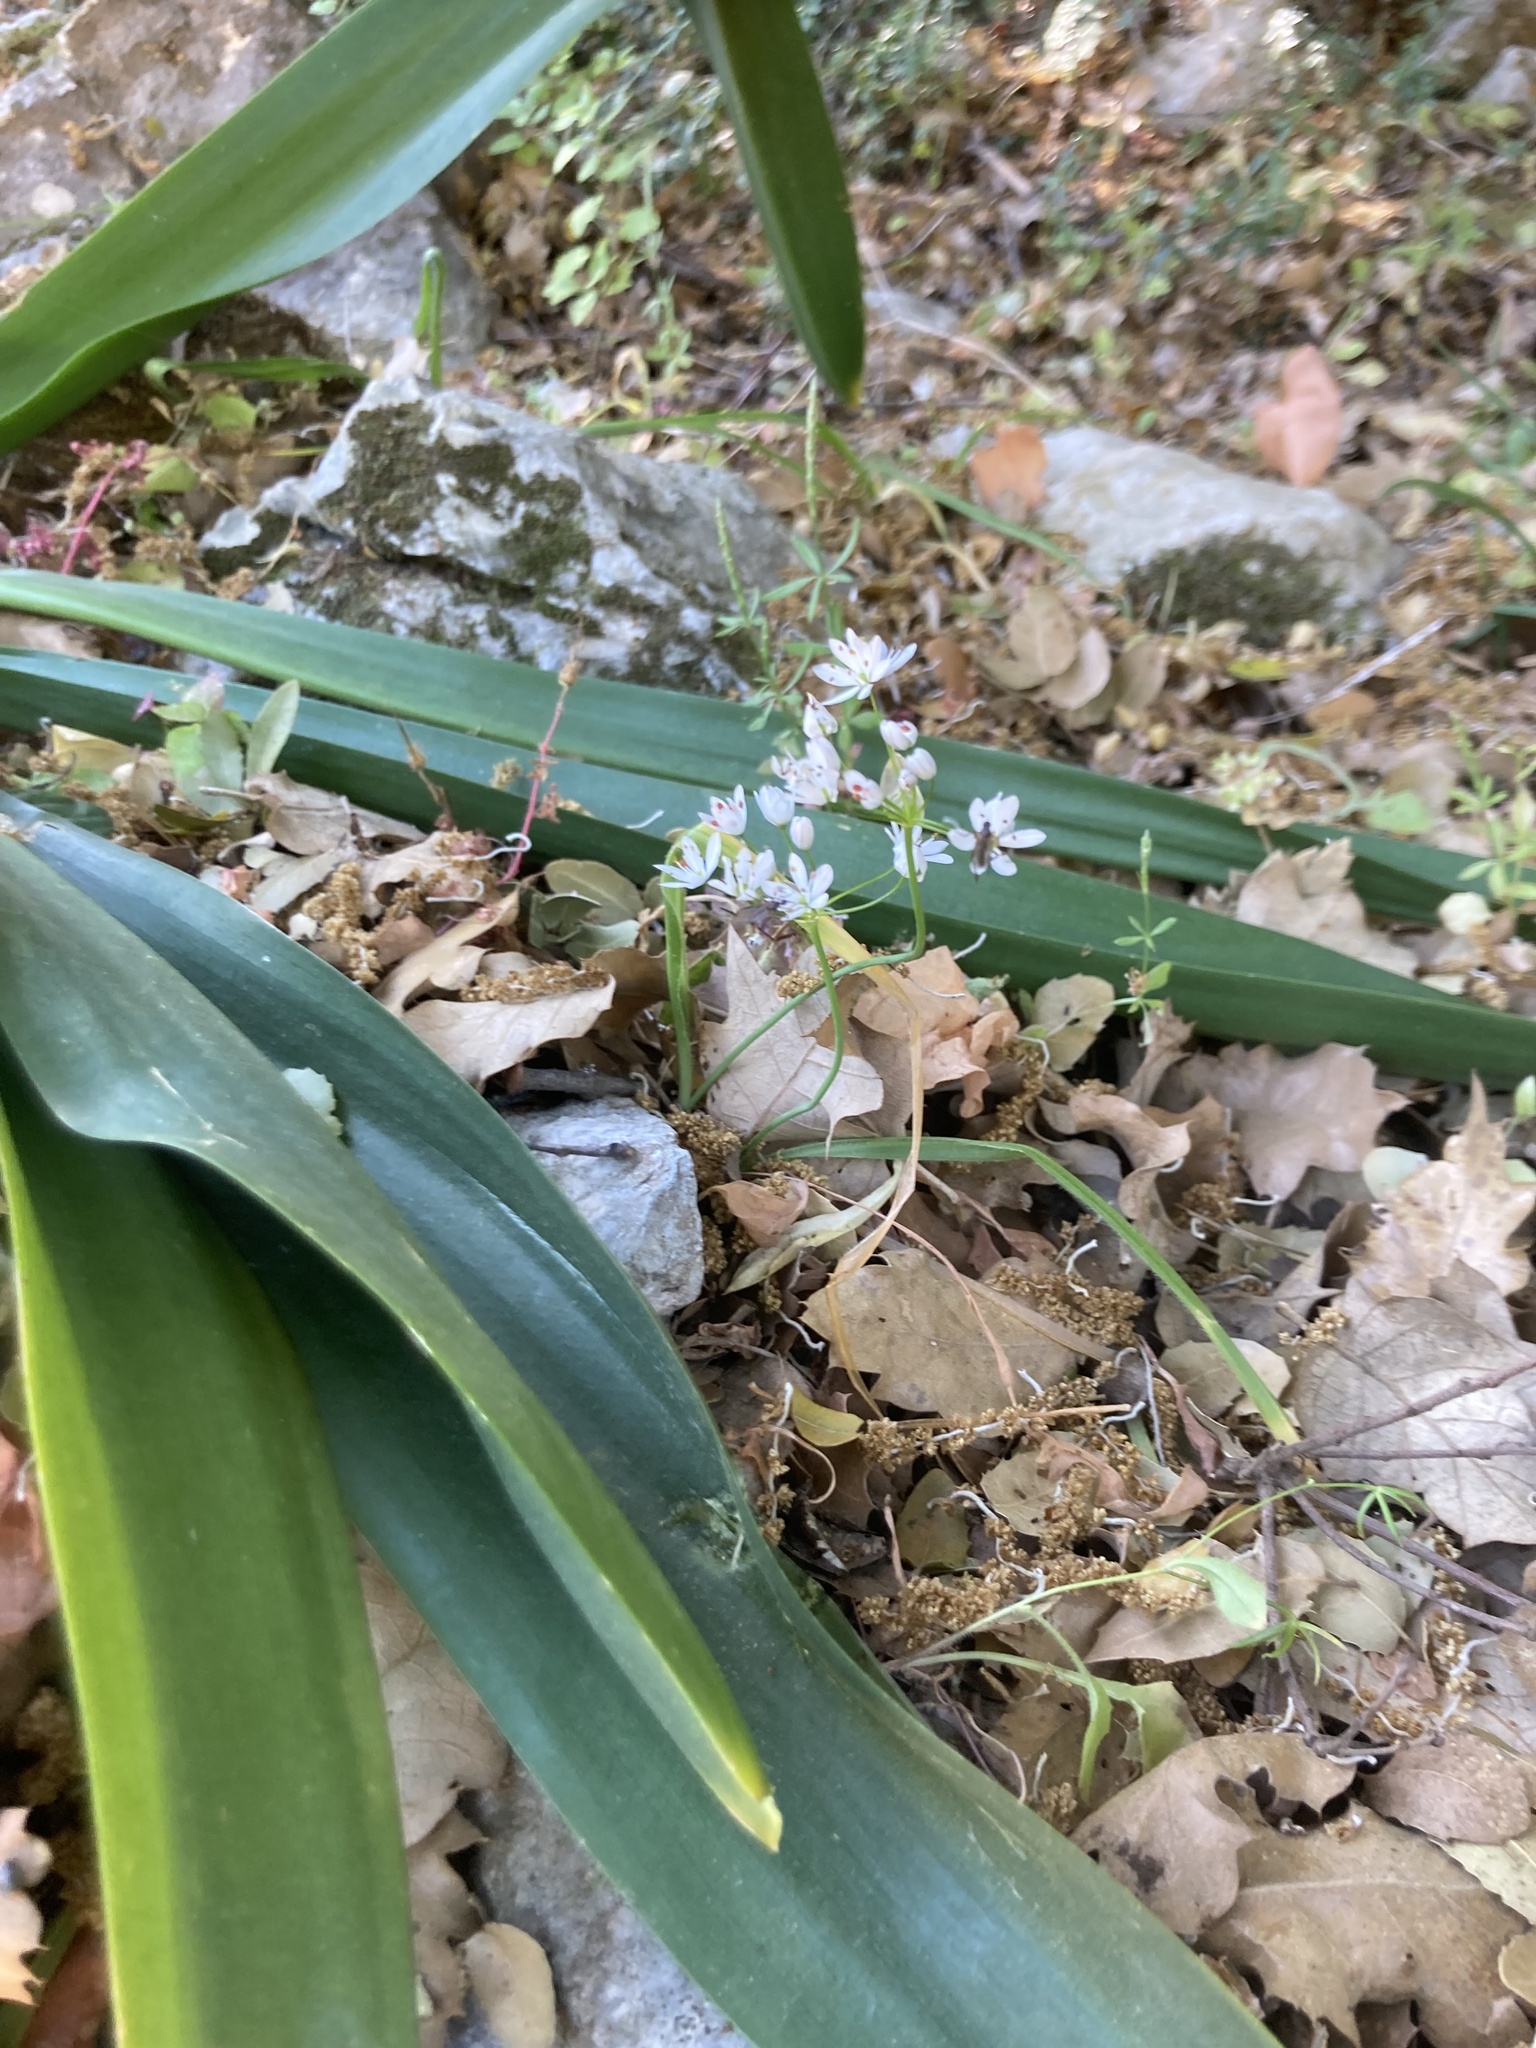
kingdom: Plantae
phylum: Tracheophyta
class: Liliopsida
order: Asparagales
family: Amaryllidaceae
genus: Allium
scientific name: Allium subhirsutum
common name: Hairy garlic
